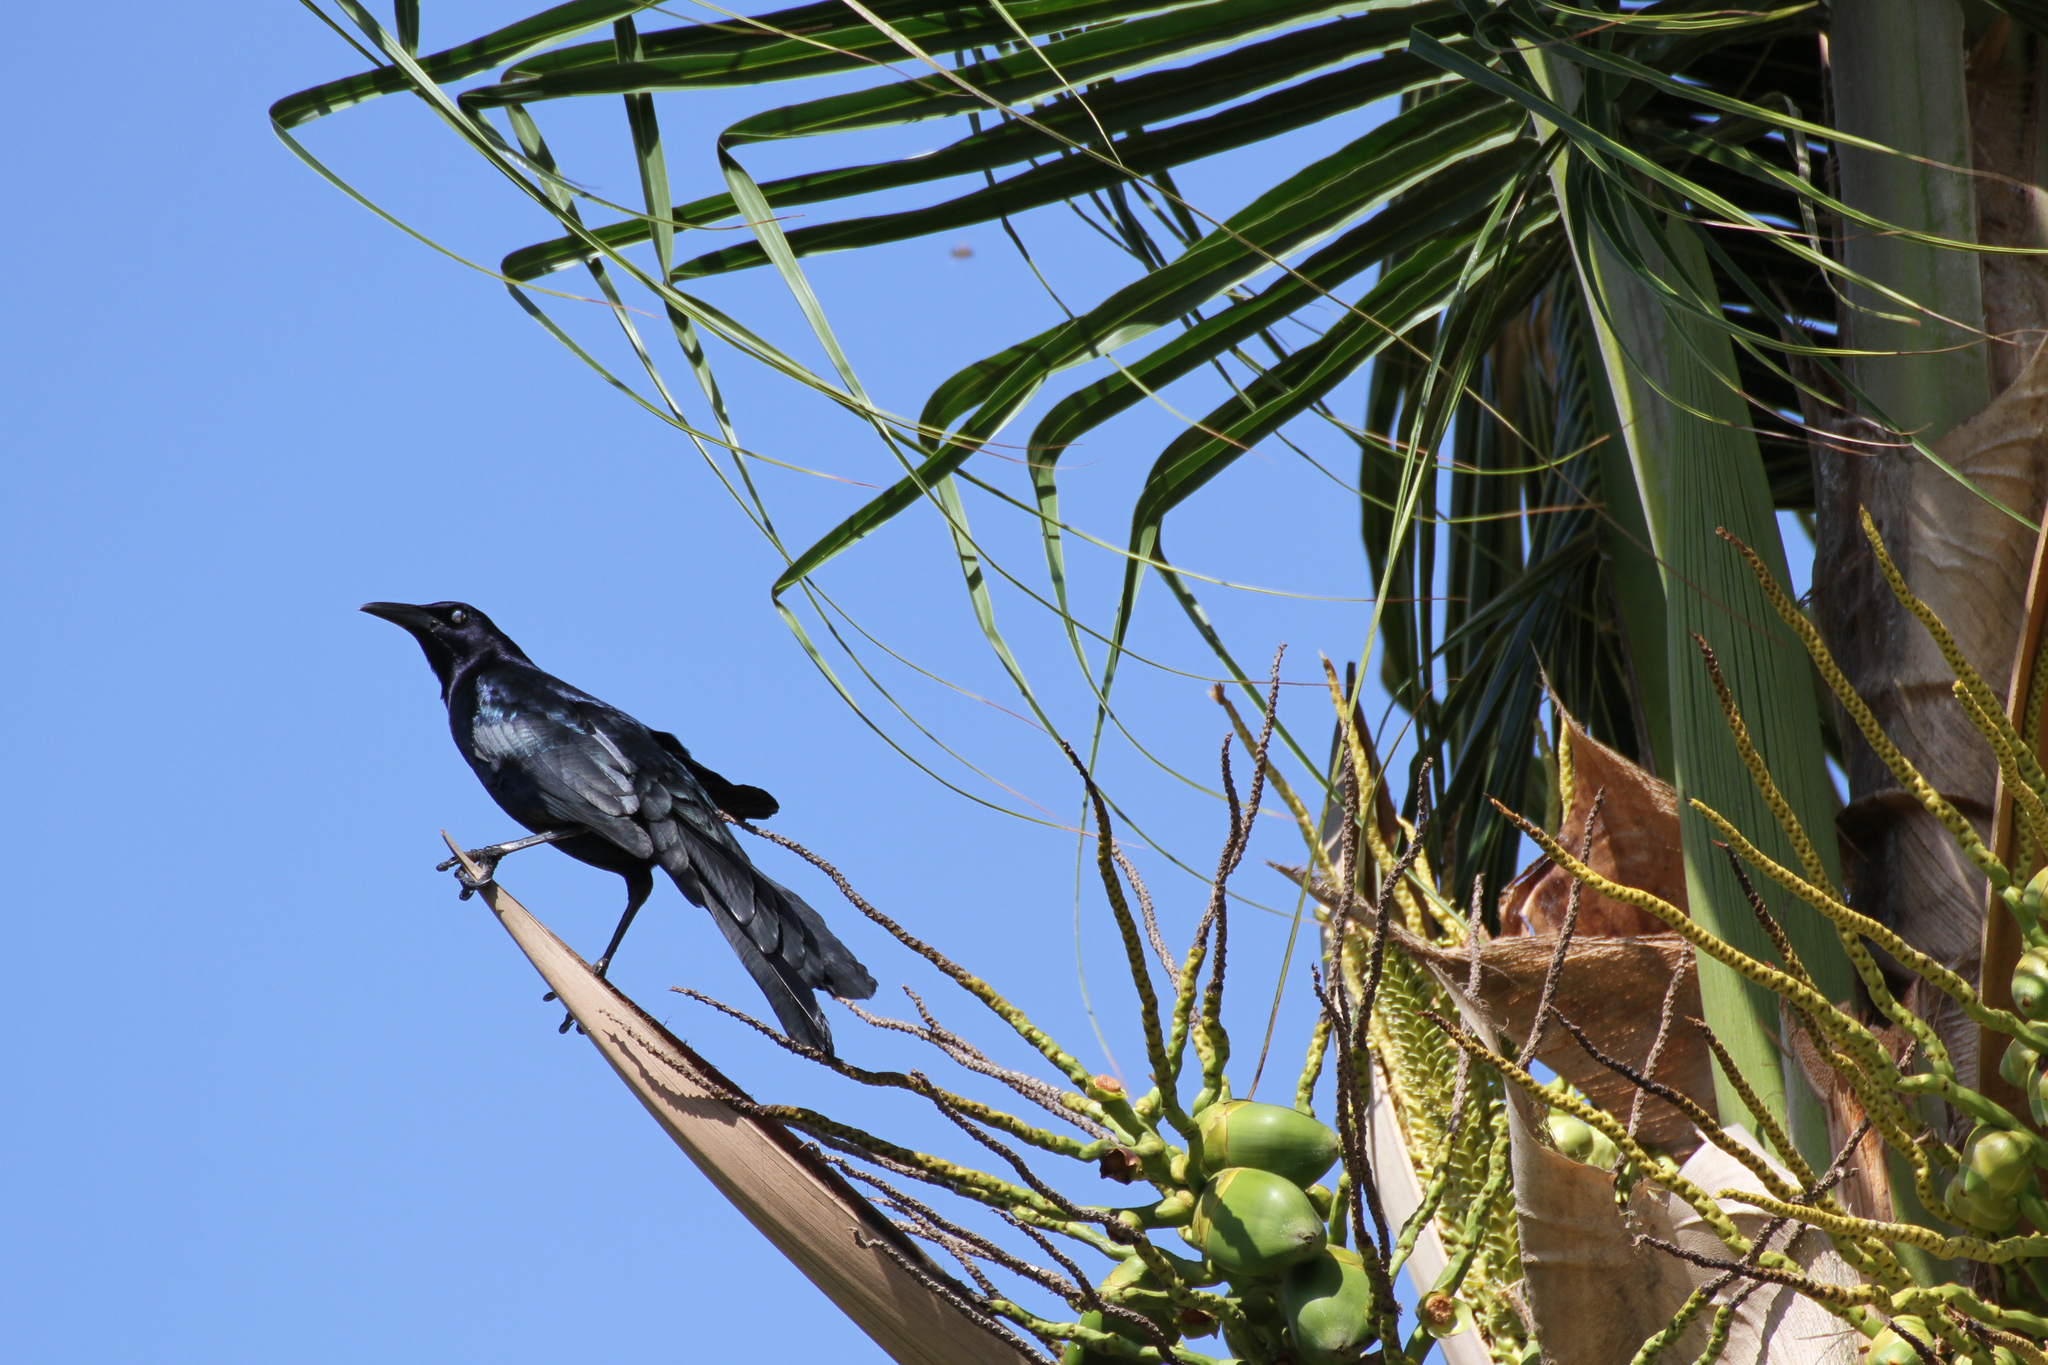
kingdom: Animalia
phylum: Chordata
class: Aves
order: Passeriformes
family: Icteridae
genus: Quiscalus
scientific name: Quiscalus mexicanus
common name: Great-tailed grackle
